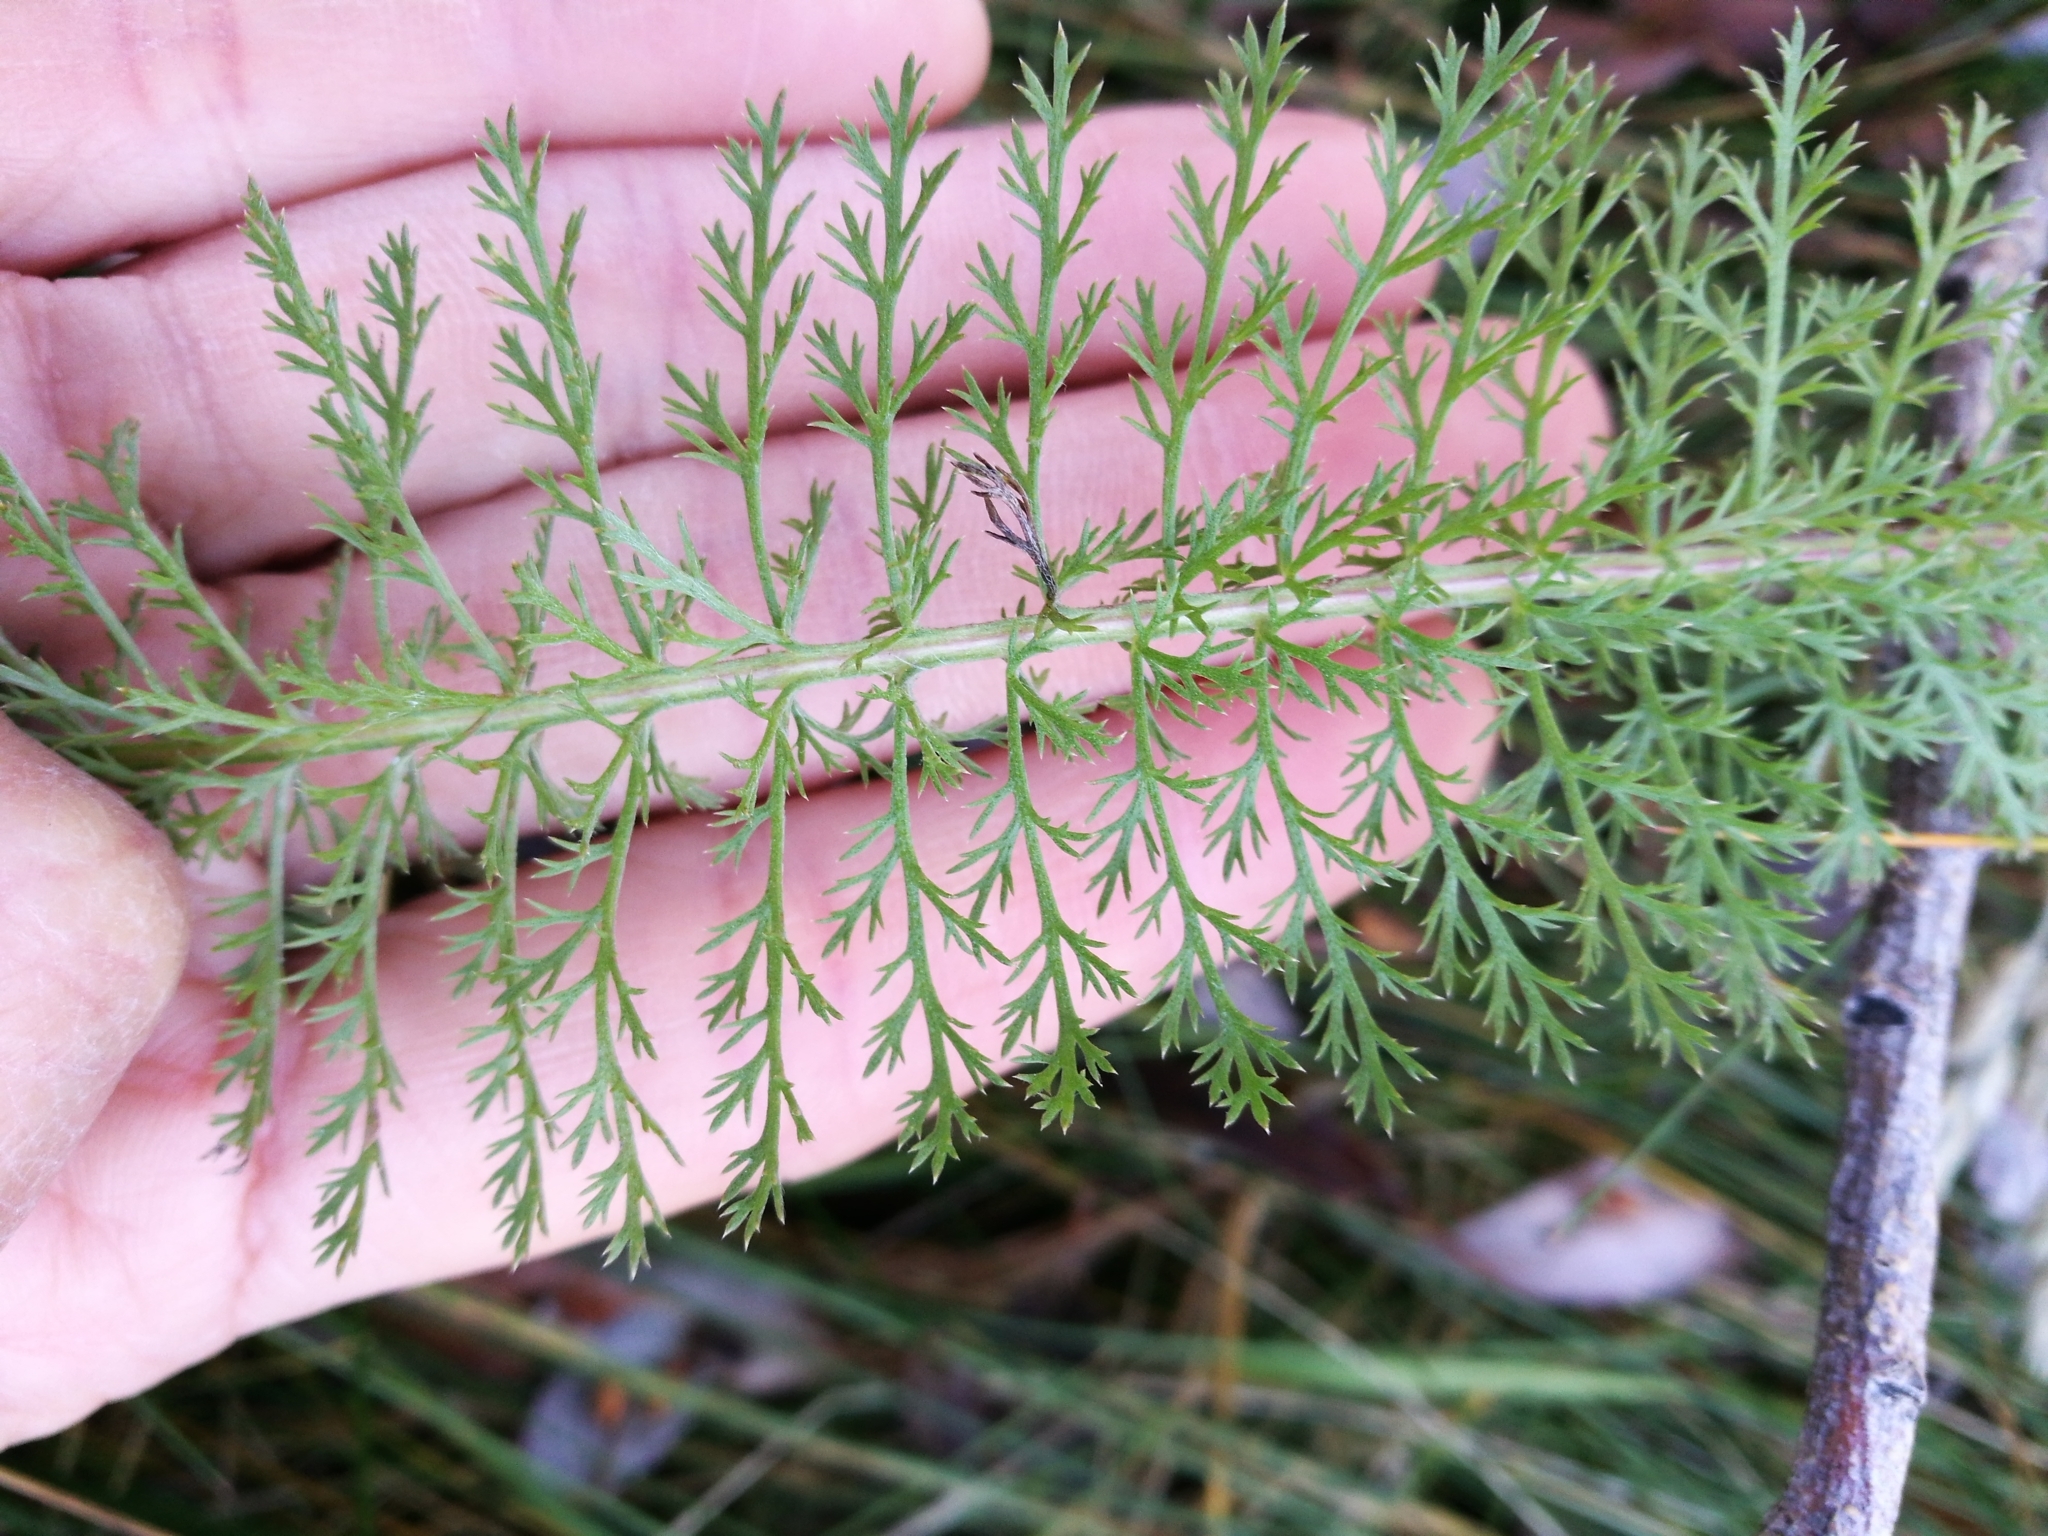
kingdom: Plantae
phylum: Tracheophyta
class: Magnoliopsida
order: Asterales
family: Asteraceae
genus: Achillea
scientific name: Achillea millefolium
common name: Yarrow
